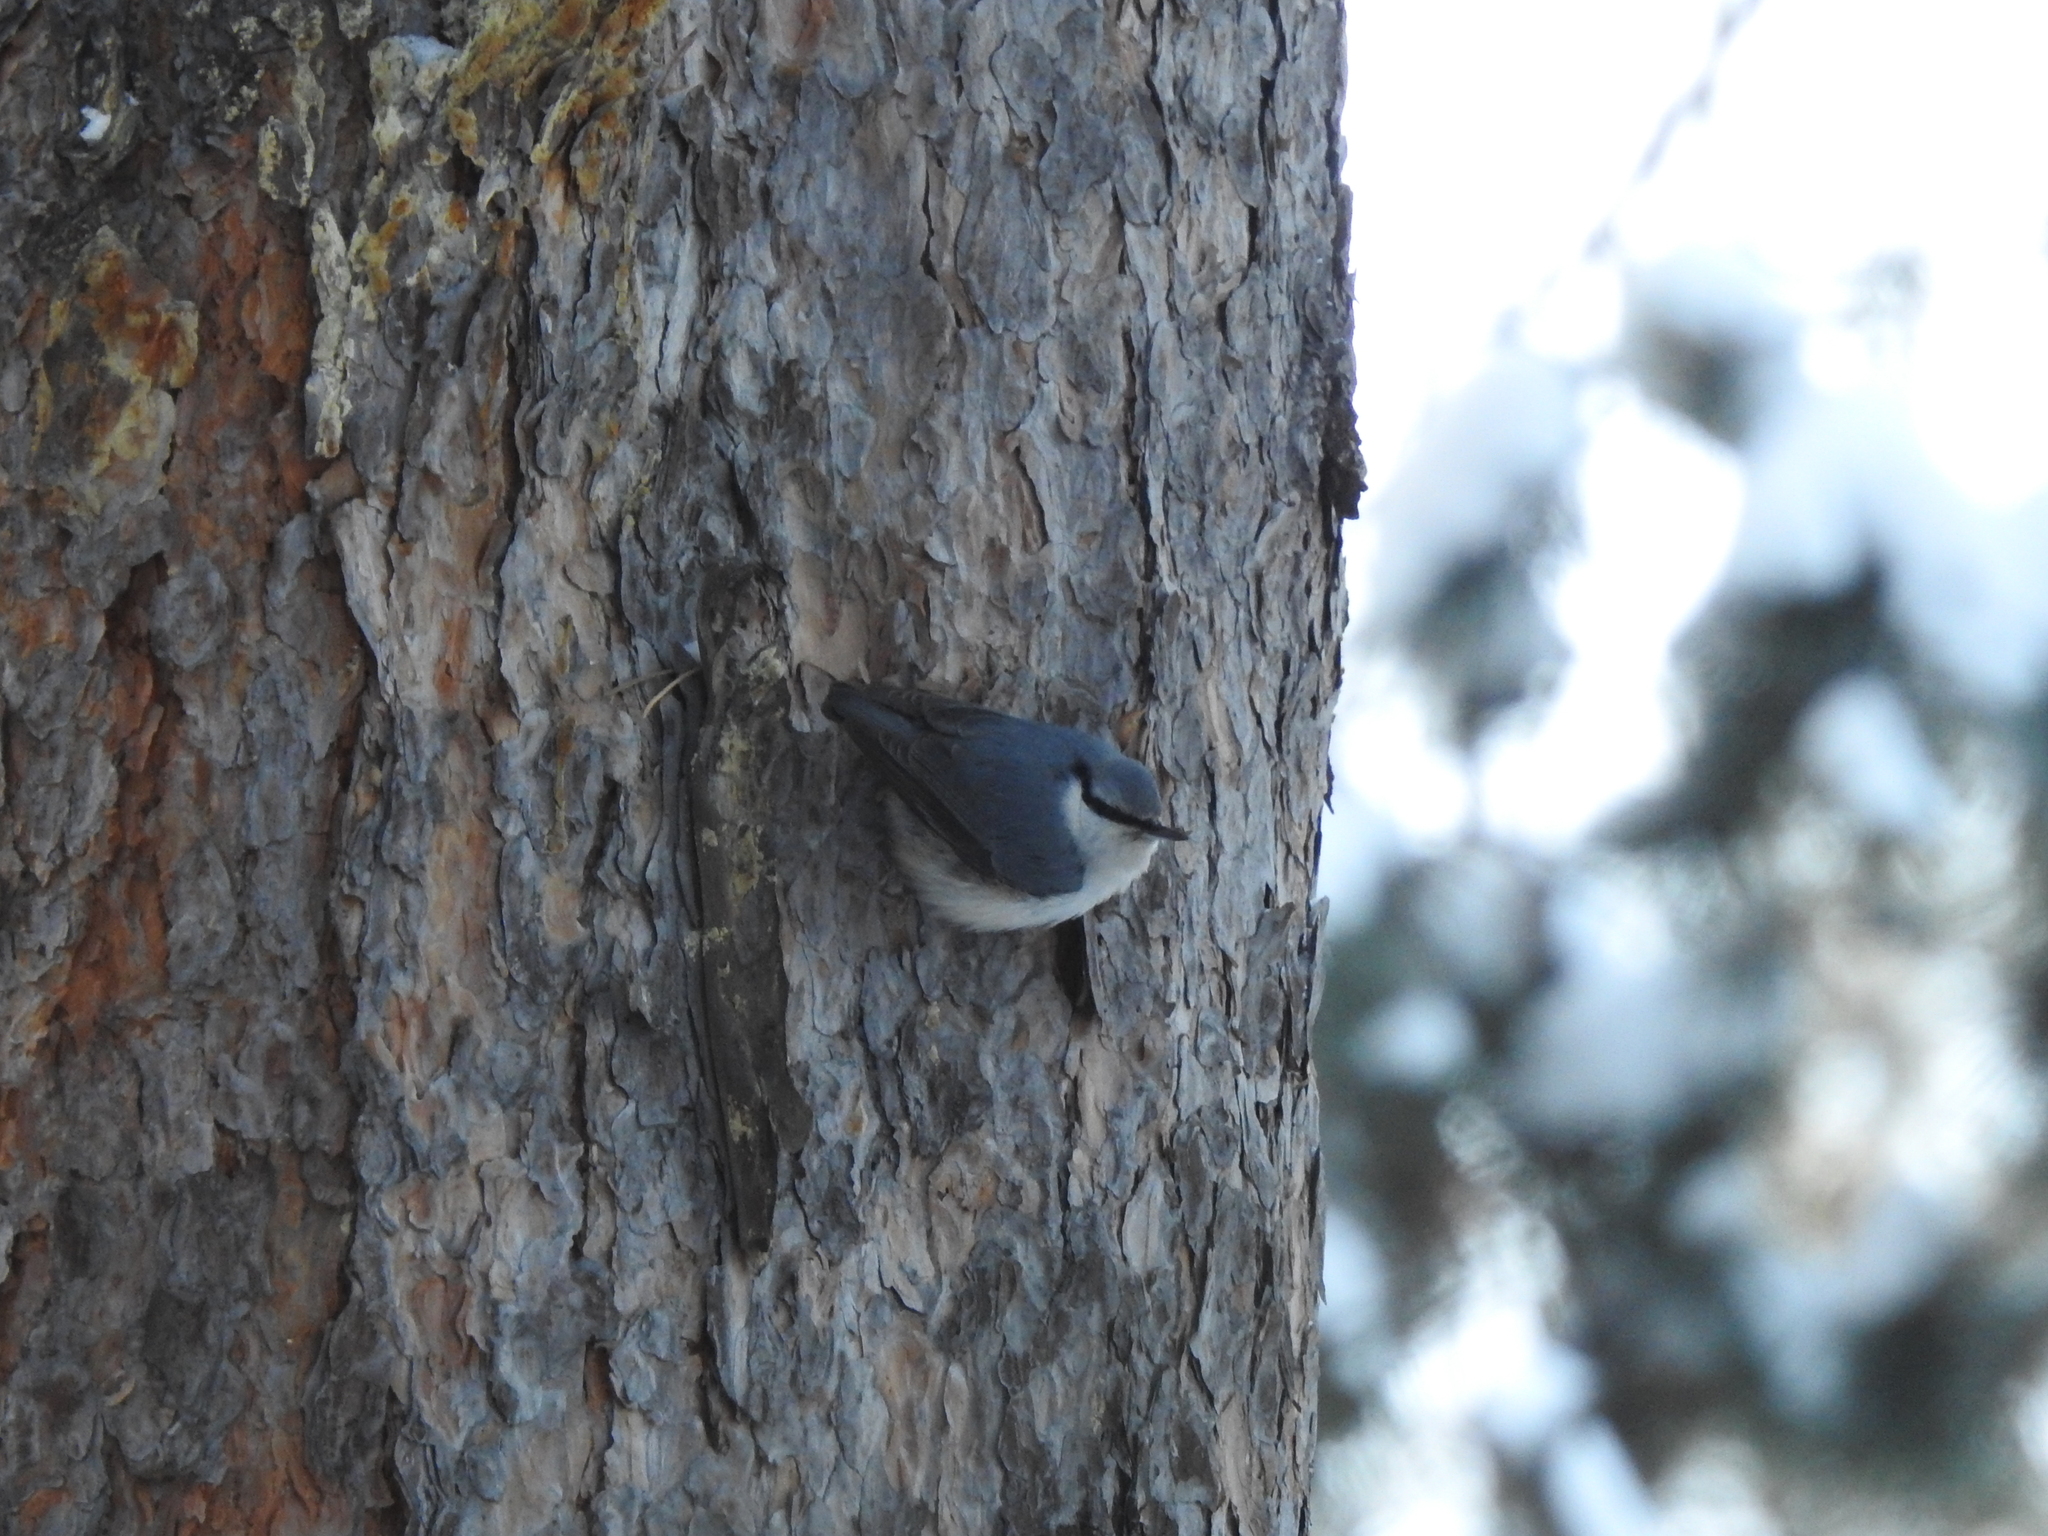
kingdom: Animalia
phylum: Chordata
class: Aves
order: Passeriformes
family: Sittidae
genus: Sitta
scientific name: Sitta europaea
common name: Eurasian nuthatch
